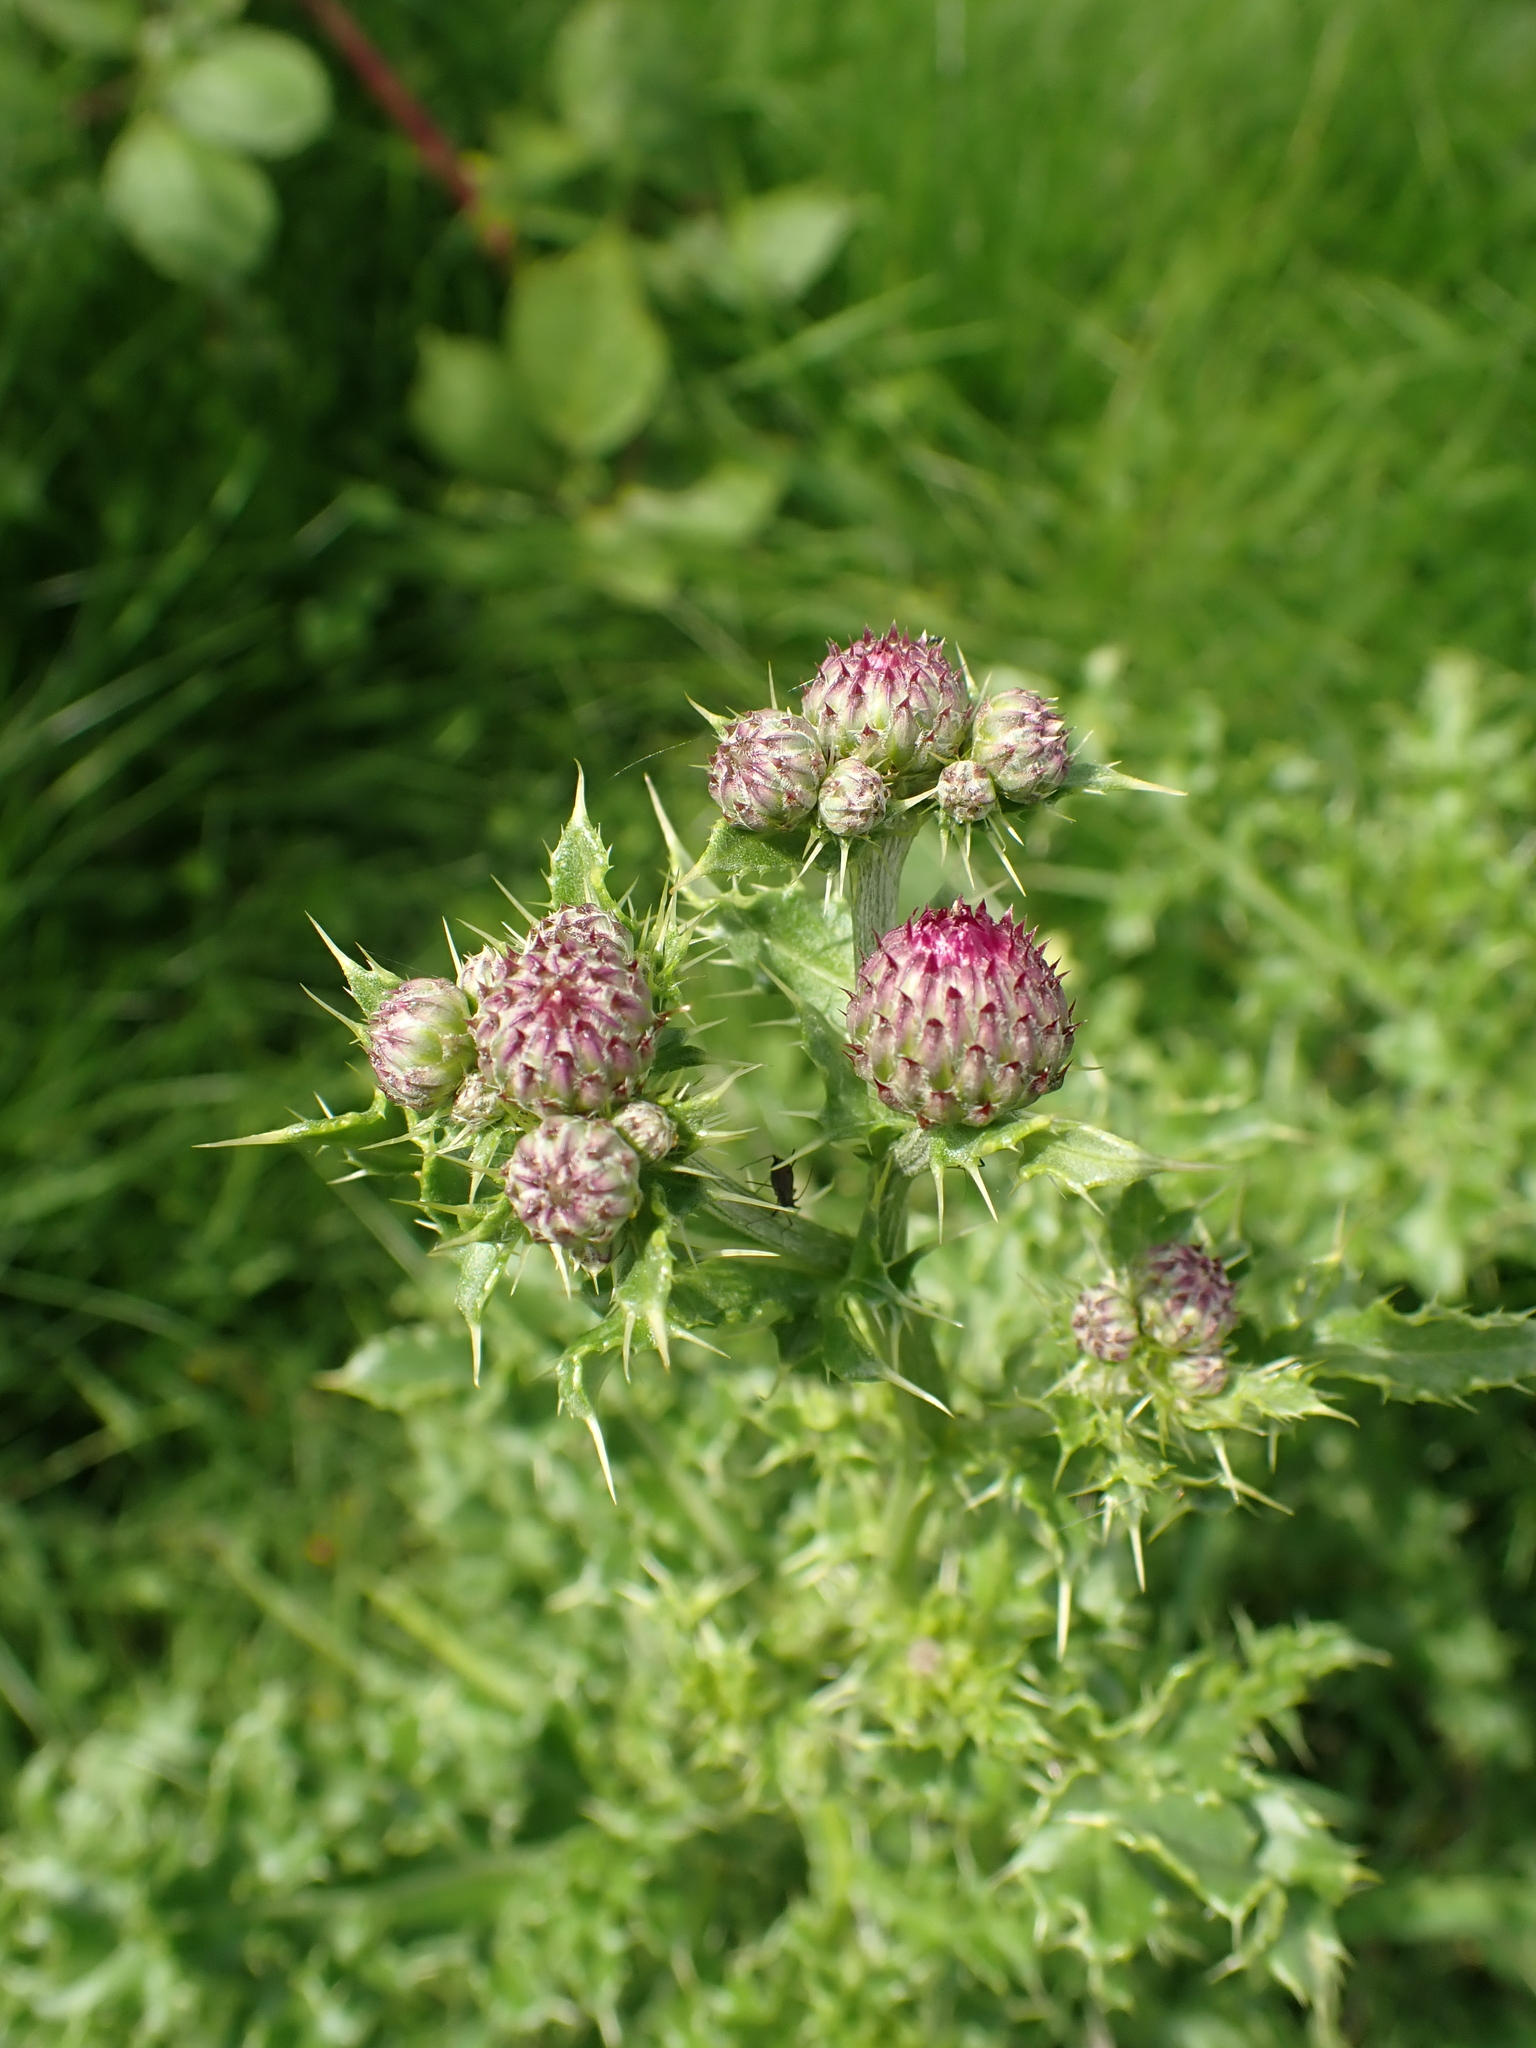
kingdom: Plantae
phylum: Tracheophyta
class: Magnoliopsida
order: Asterales
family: Asteraceae
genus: Cirsium
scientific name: Cirsium arvense
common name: Creeping thistle
